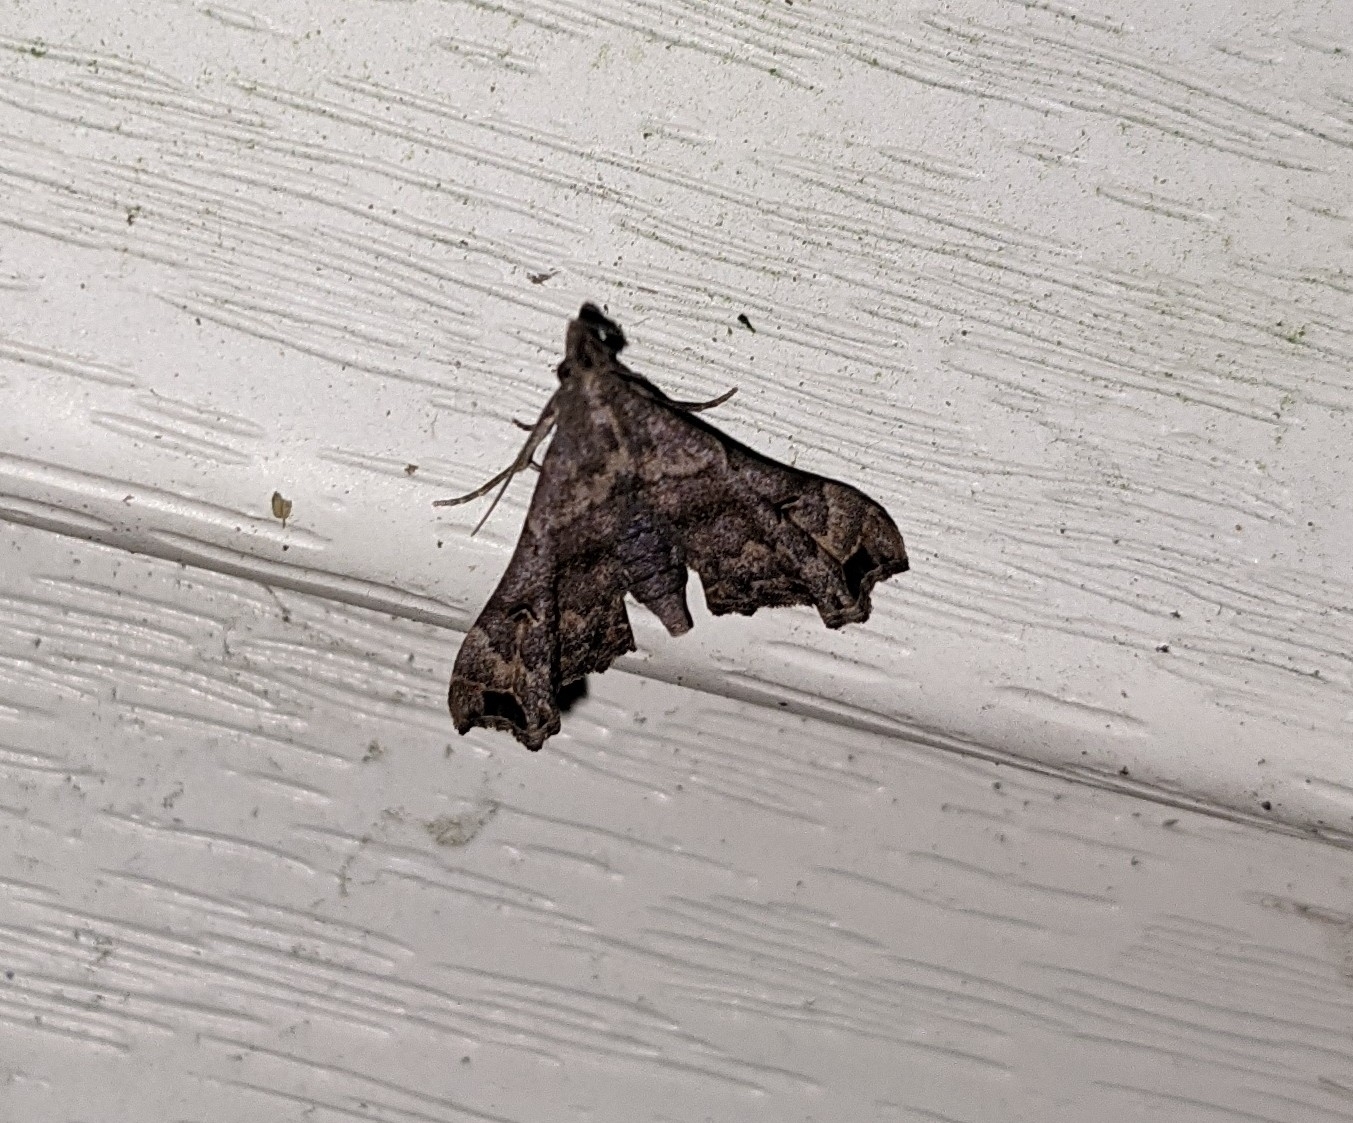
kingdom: Animalia
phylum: Arthropoda
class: Insecta
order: Lepidoptera
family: Erebidae
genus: Palthis
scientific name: Palthis asopialis
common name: Faint-spotted palthis moth
